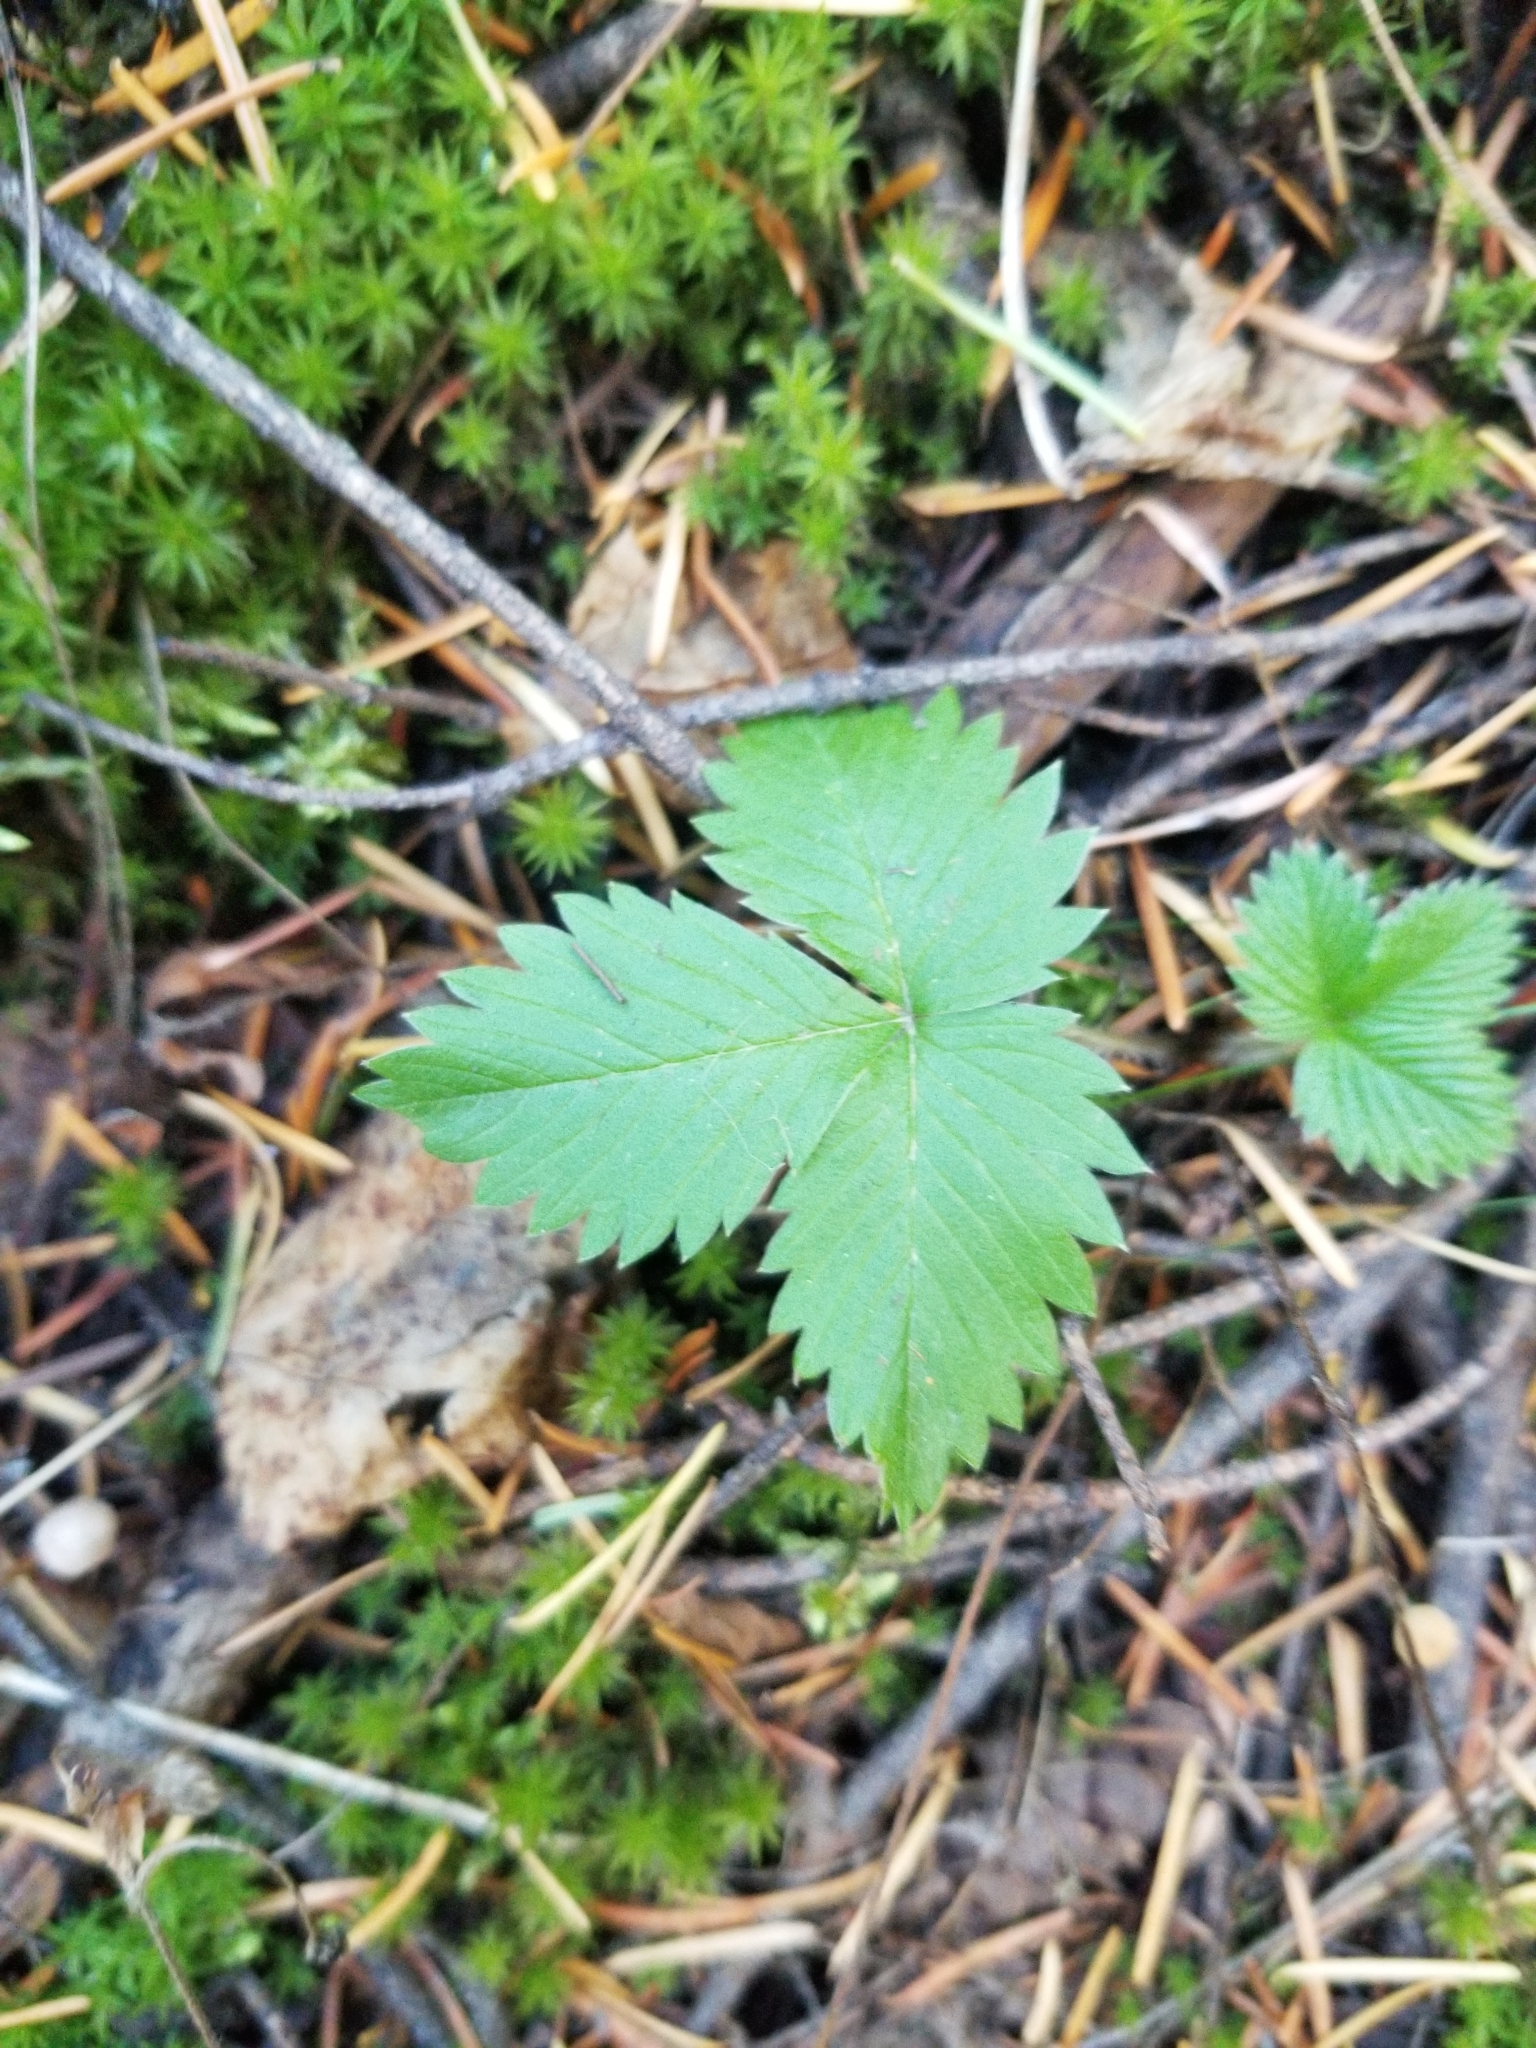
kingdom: Plantae
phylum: Tracheophyta
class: Magnoliopsida
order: Rosales
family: Rosaceae
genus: Fragaria
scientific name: Fragaria vesca
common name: Wild strawberry
